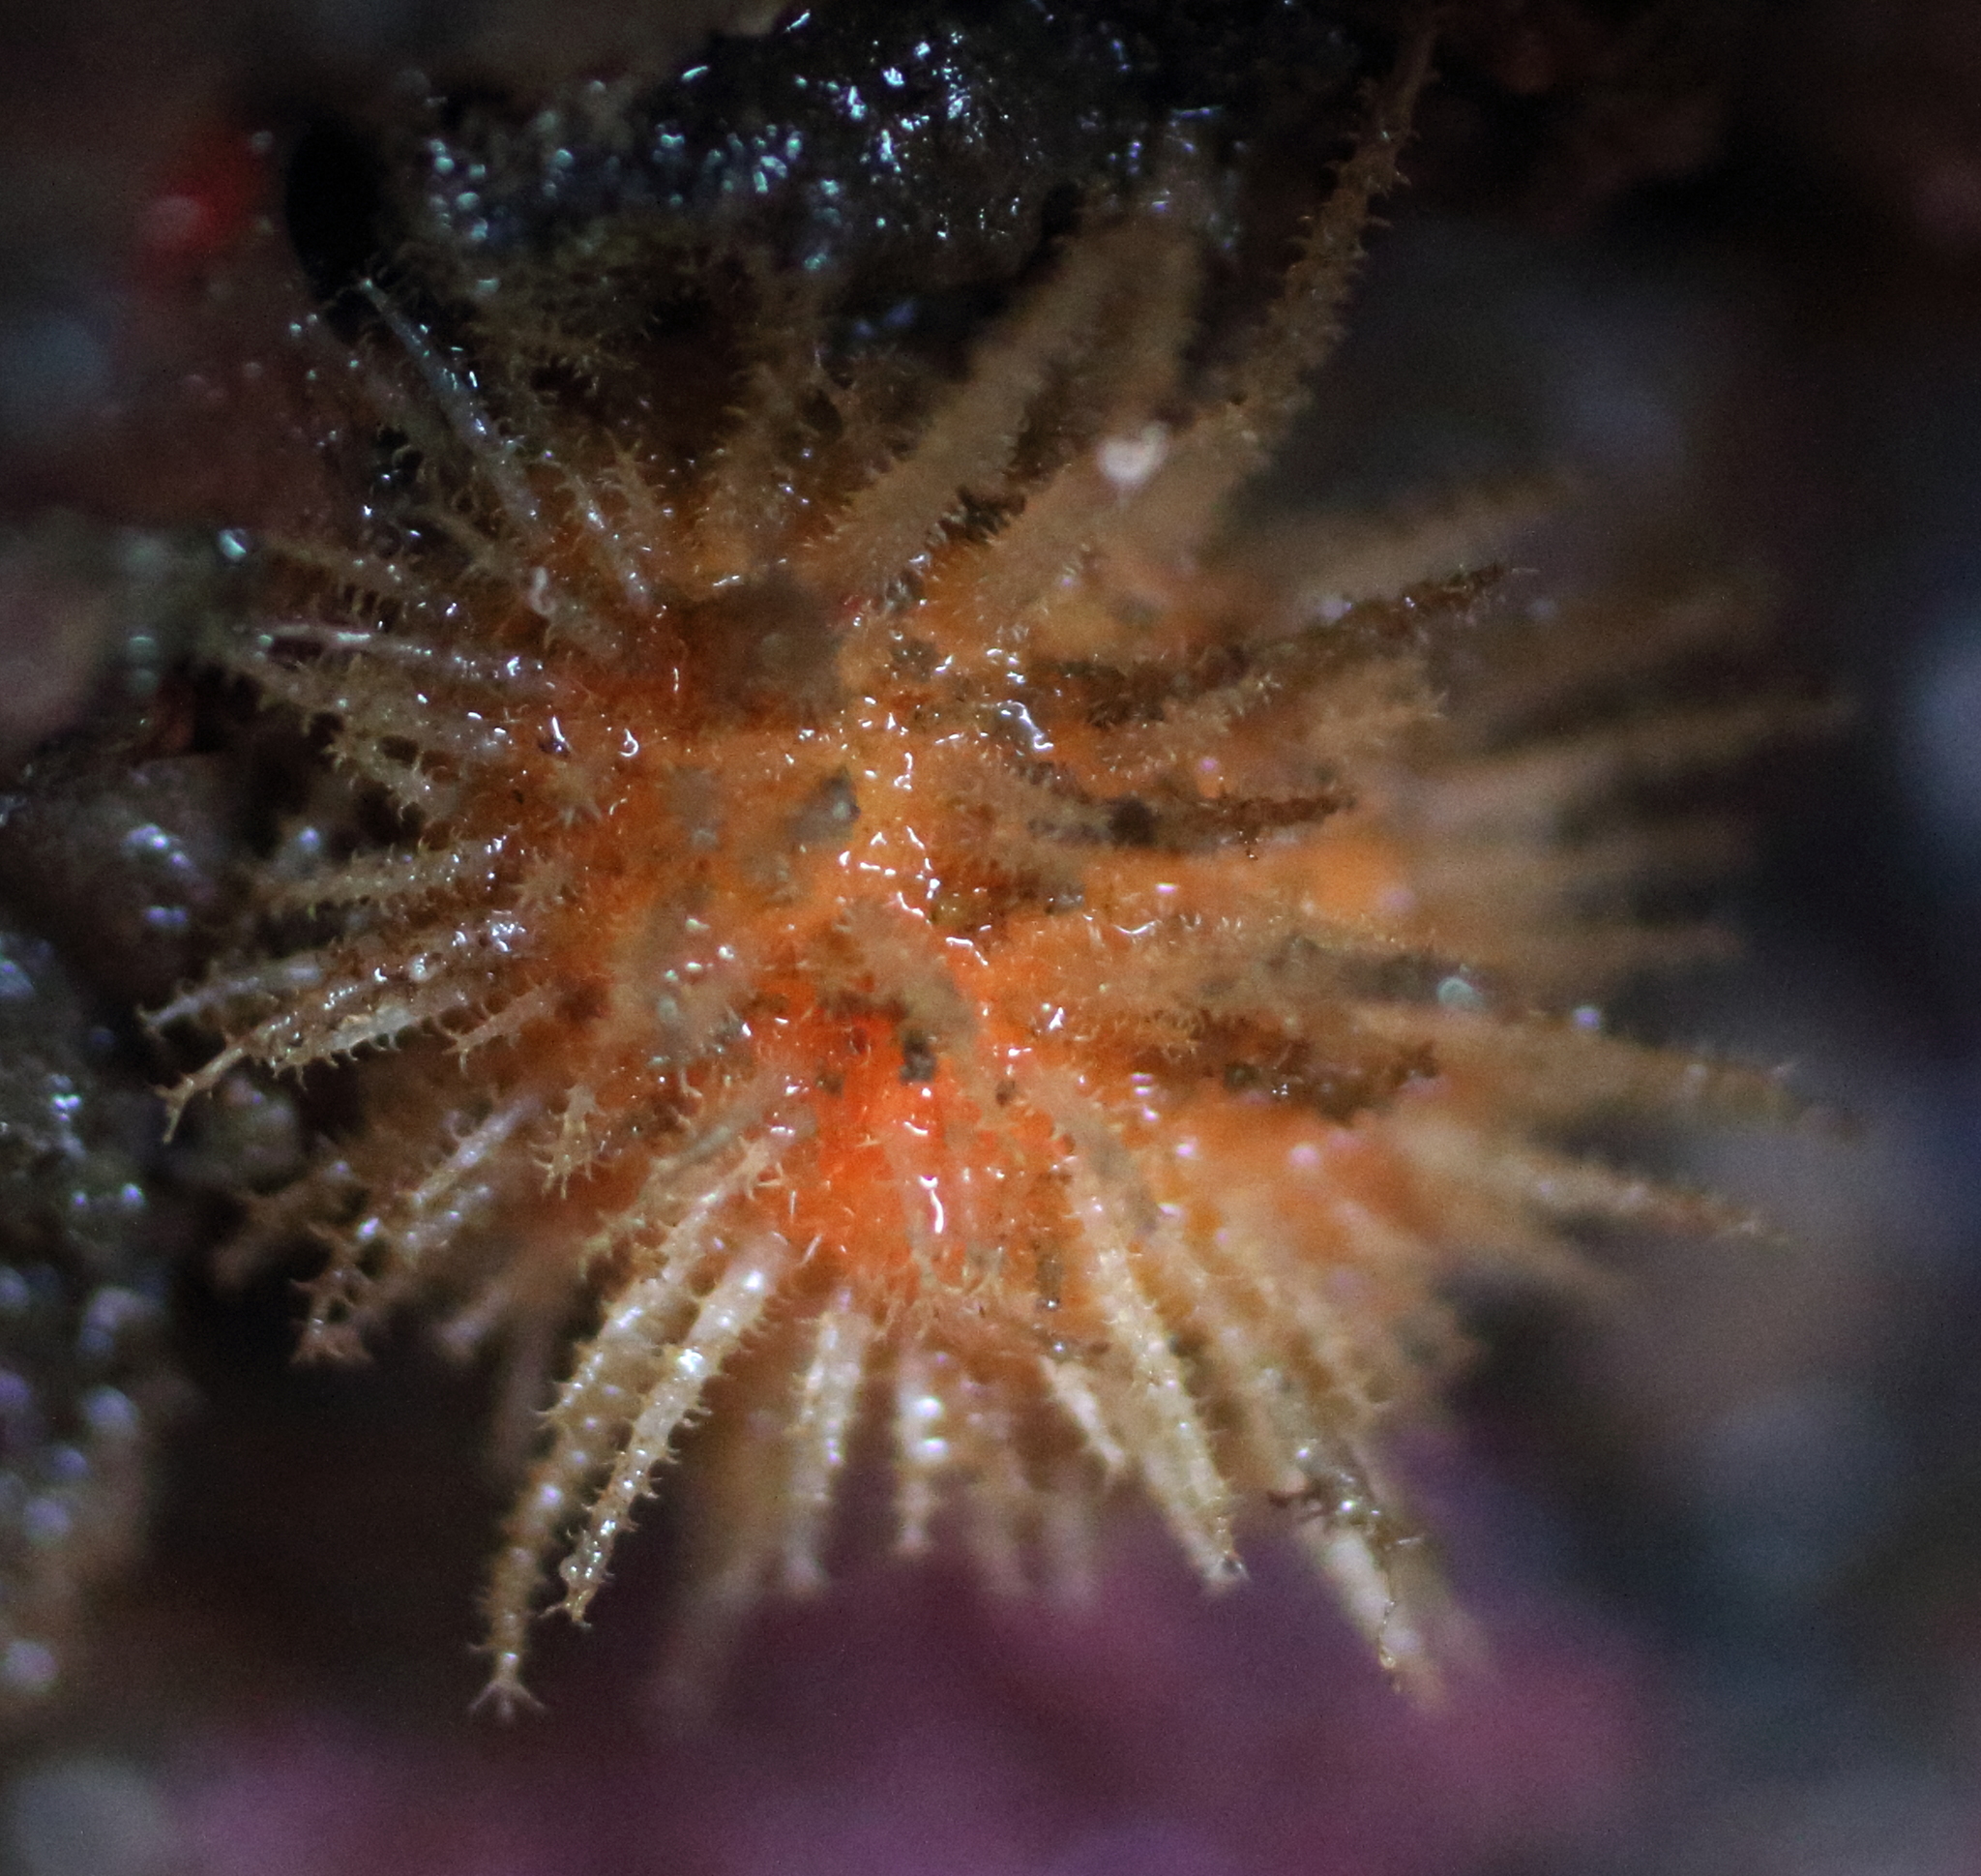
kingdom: Animalia
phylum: Chordata
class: Ascidiacea
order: Stolidobranchia
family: Pyuridae
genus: Halocynthia
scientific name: Halocynthia igaboja
